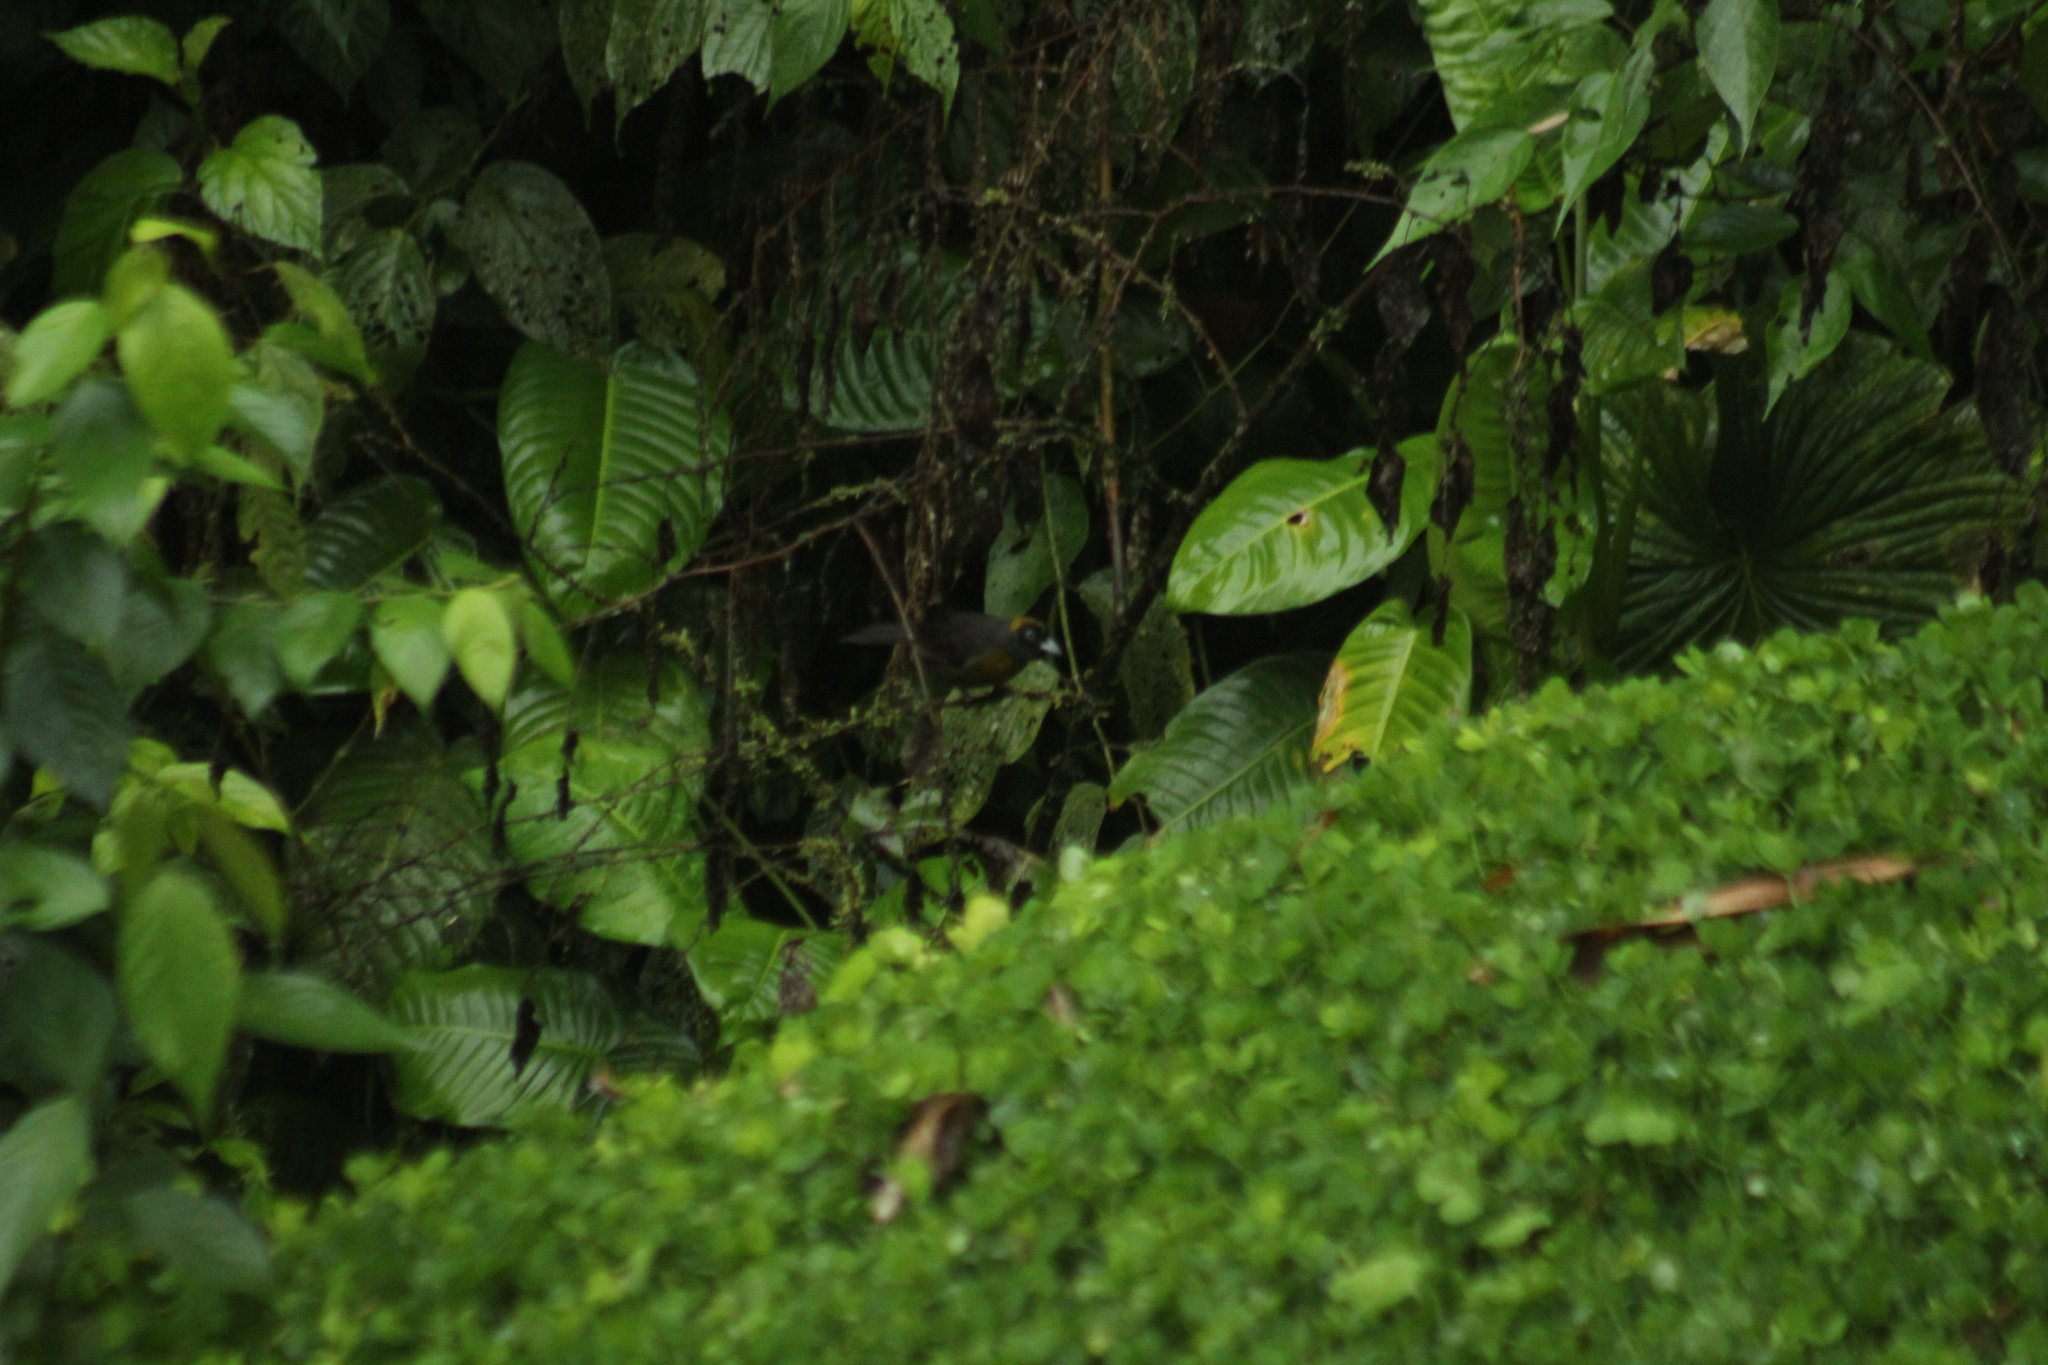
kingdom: Animalia
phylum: Chordata
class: Aves
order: Passeriformes
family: Mitrospingidae
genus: Mitrospingus
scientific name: Mitrospingus cassinii
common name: Dusky-faced tanager
